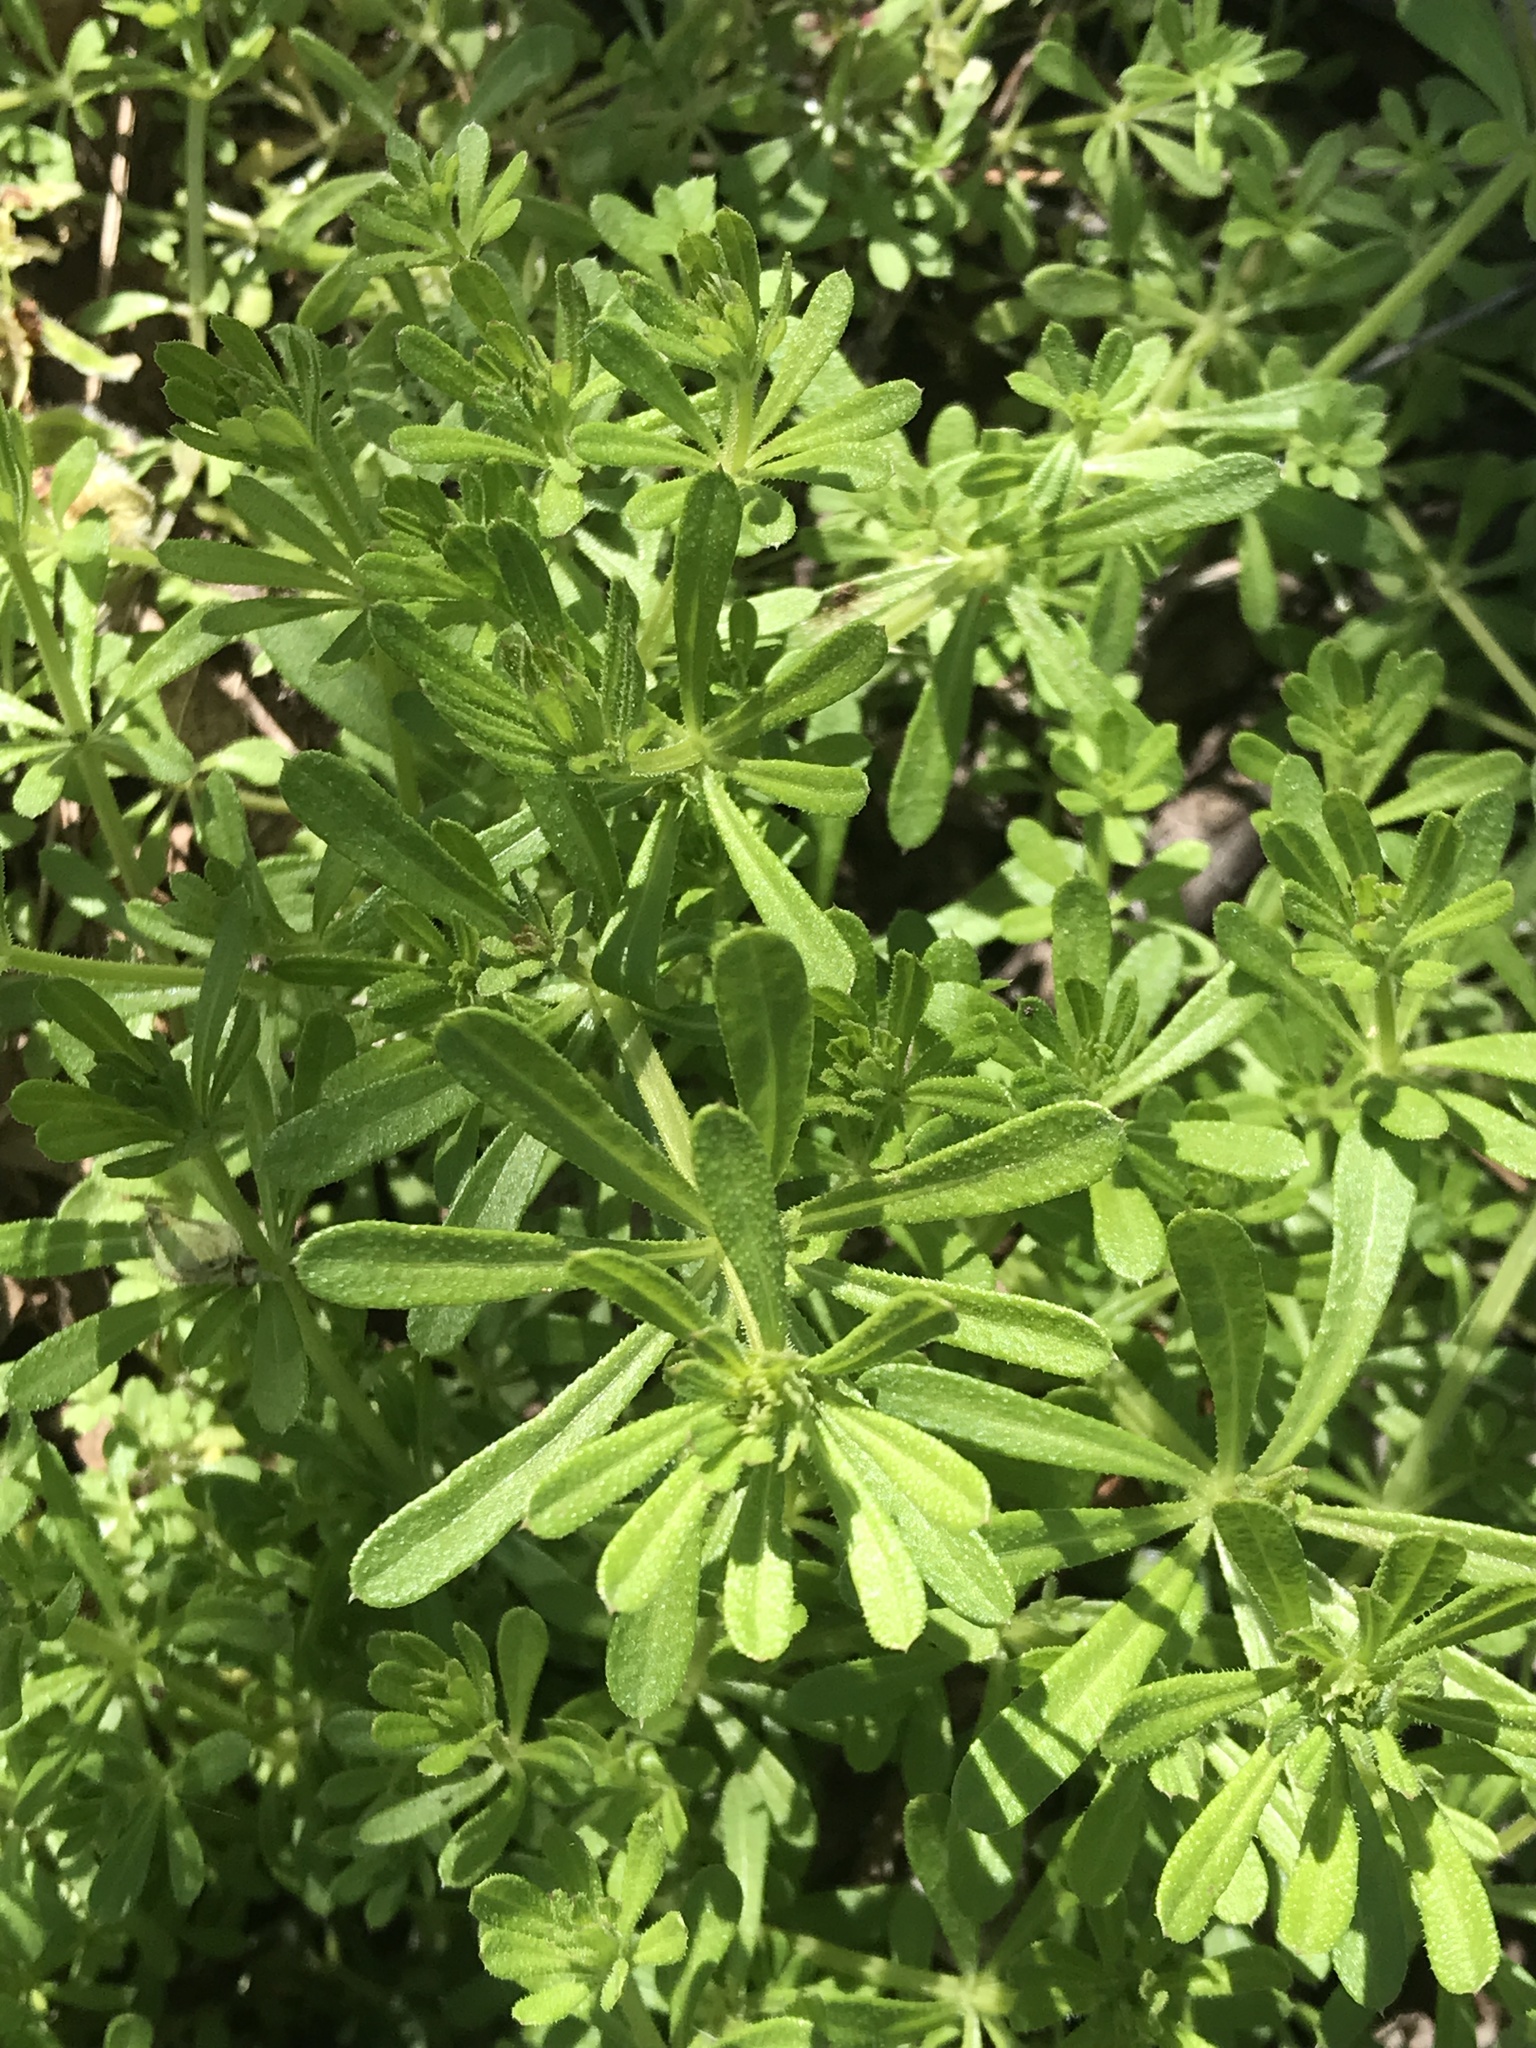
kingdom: Plantae
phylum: Tracheophyta
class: Magnoliopsida
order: Gentianales
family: Rubiaceae
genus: Galium
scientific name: Galium aparine
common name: Cleavers
